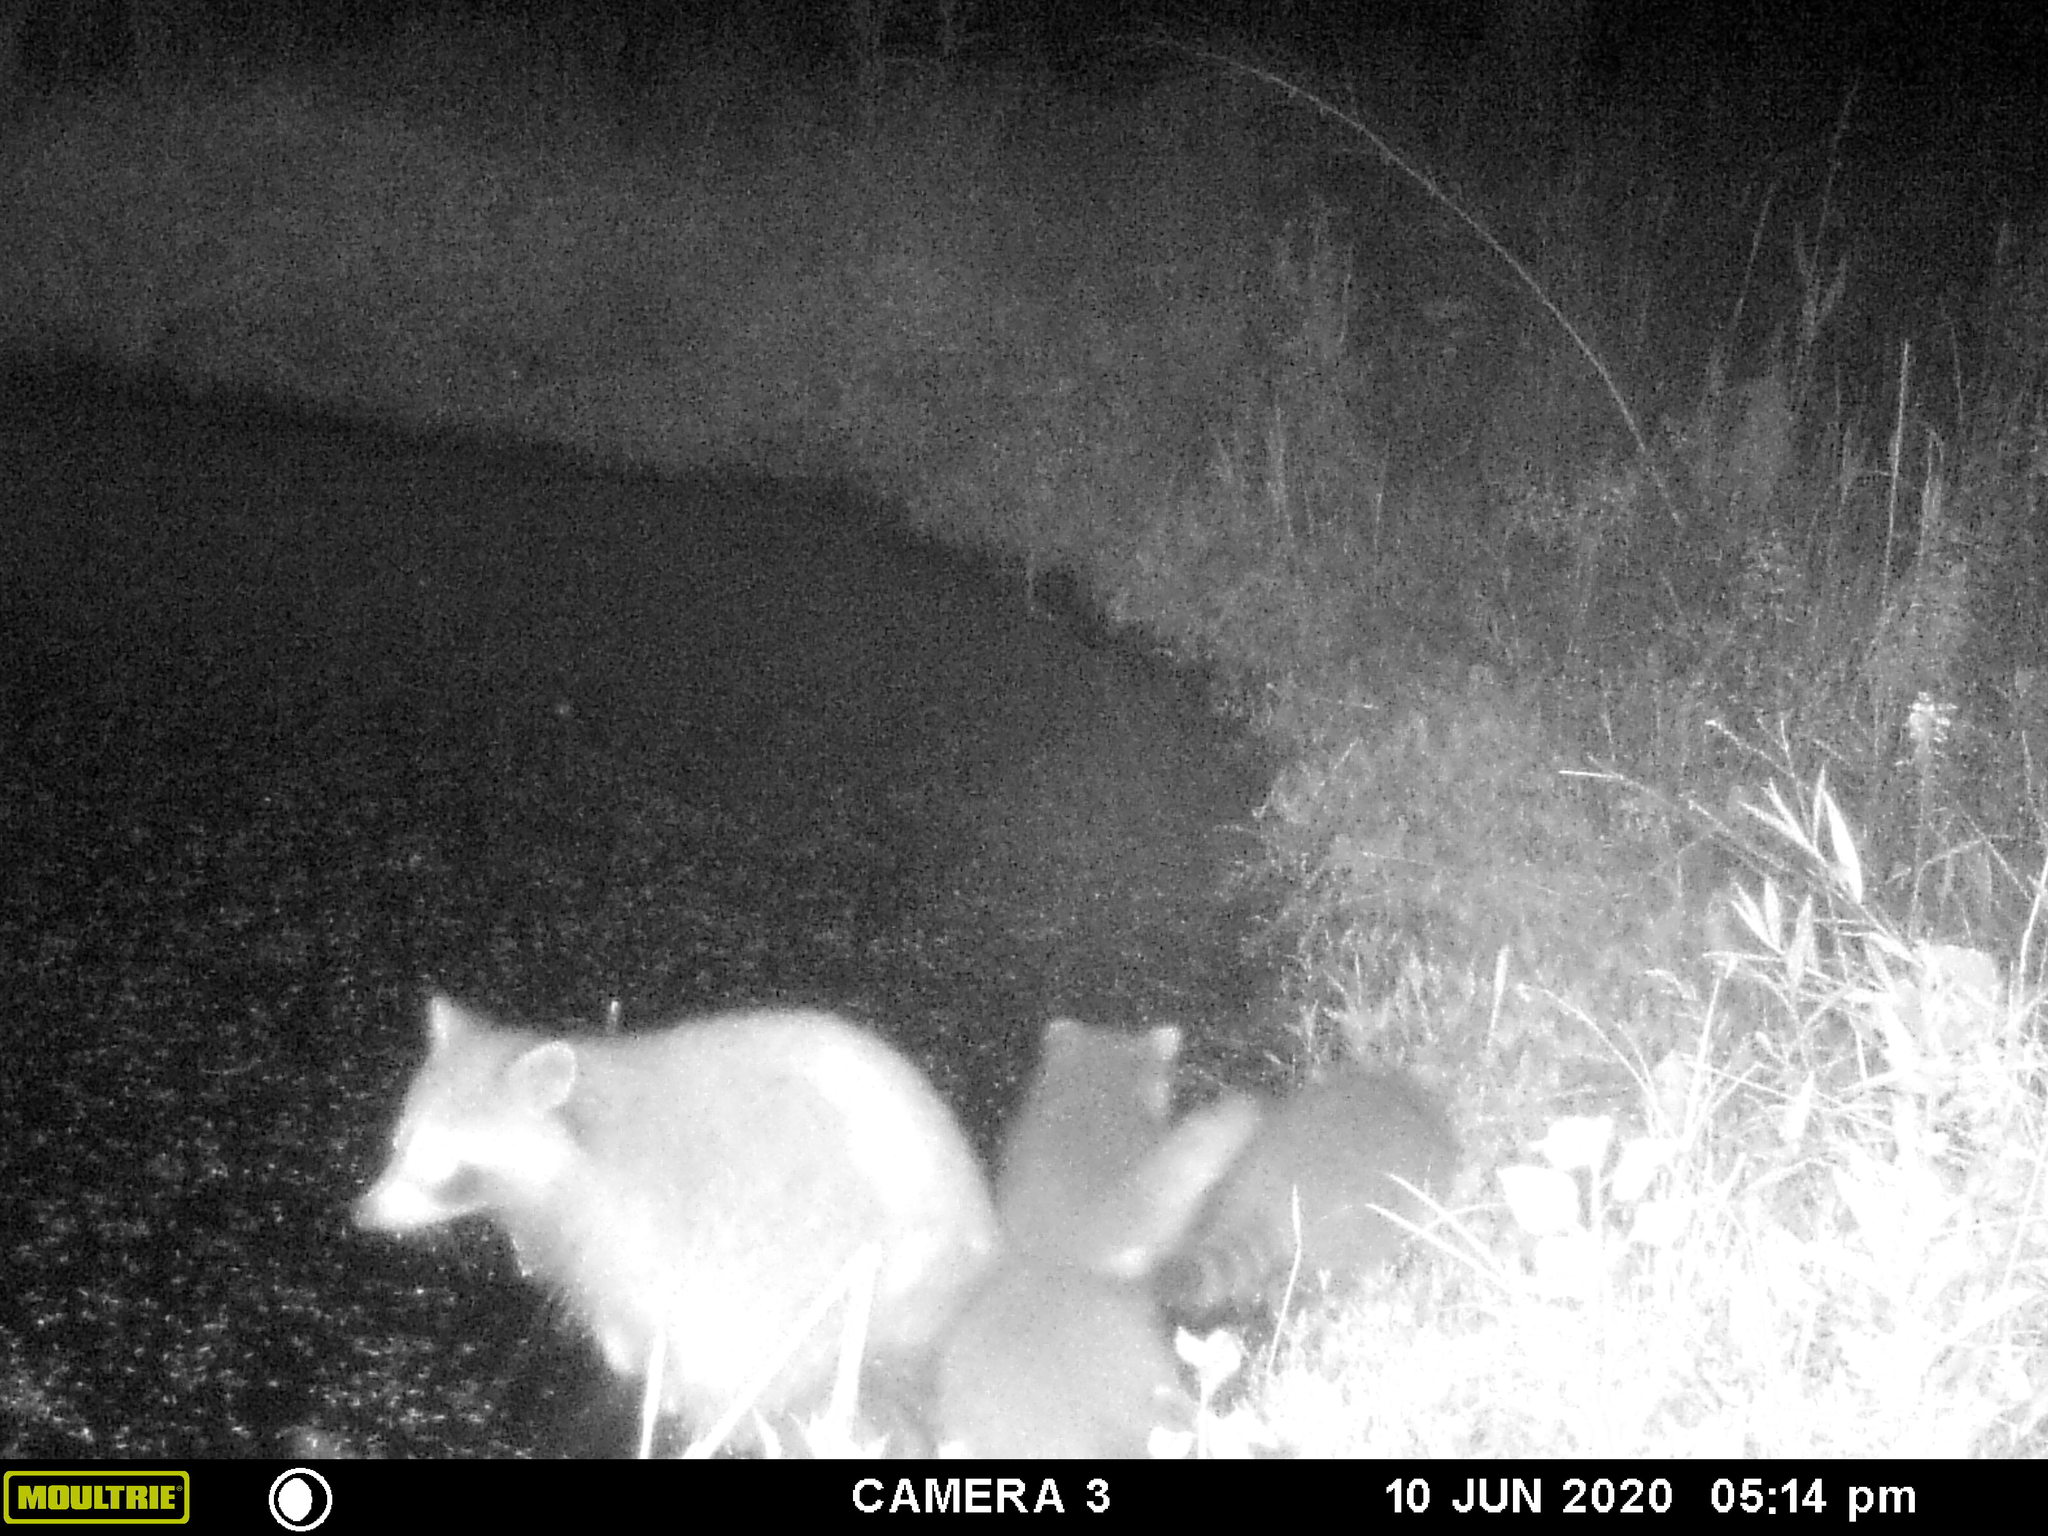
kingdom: Animalia
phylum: Chordata
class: Mammalia
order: Carnivora
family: Procyonidae
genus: Procyon
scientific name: Procyon lotor
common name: Raccoon
